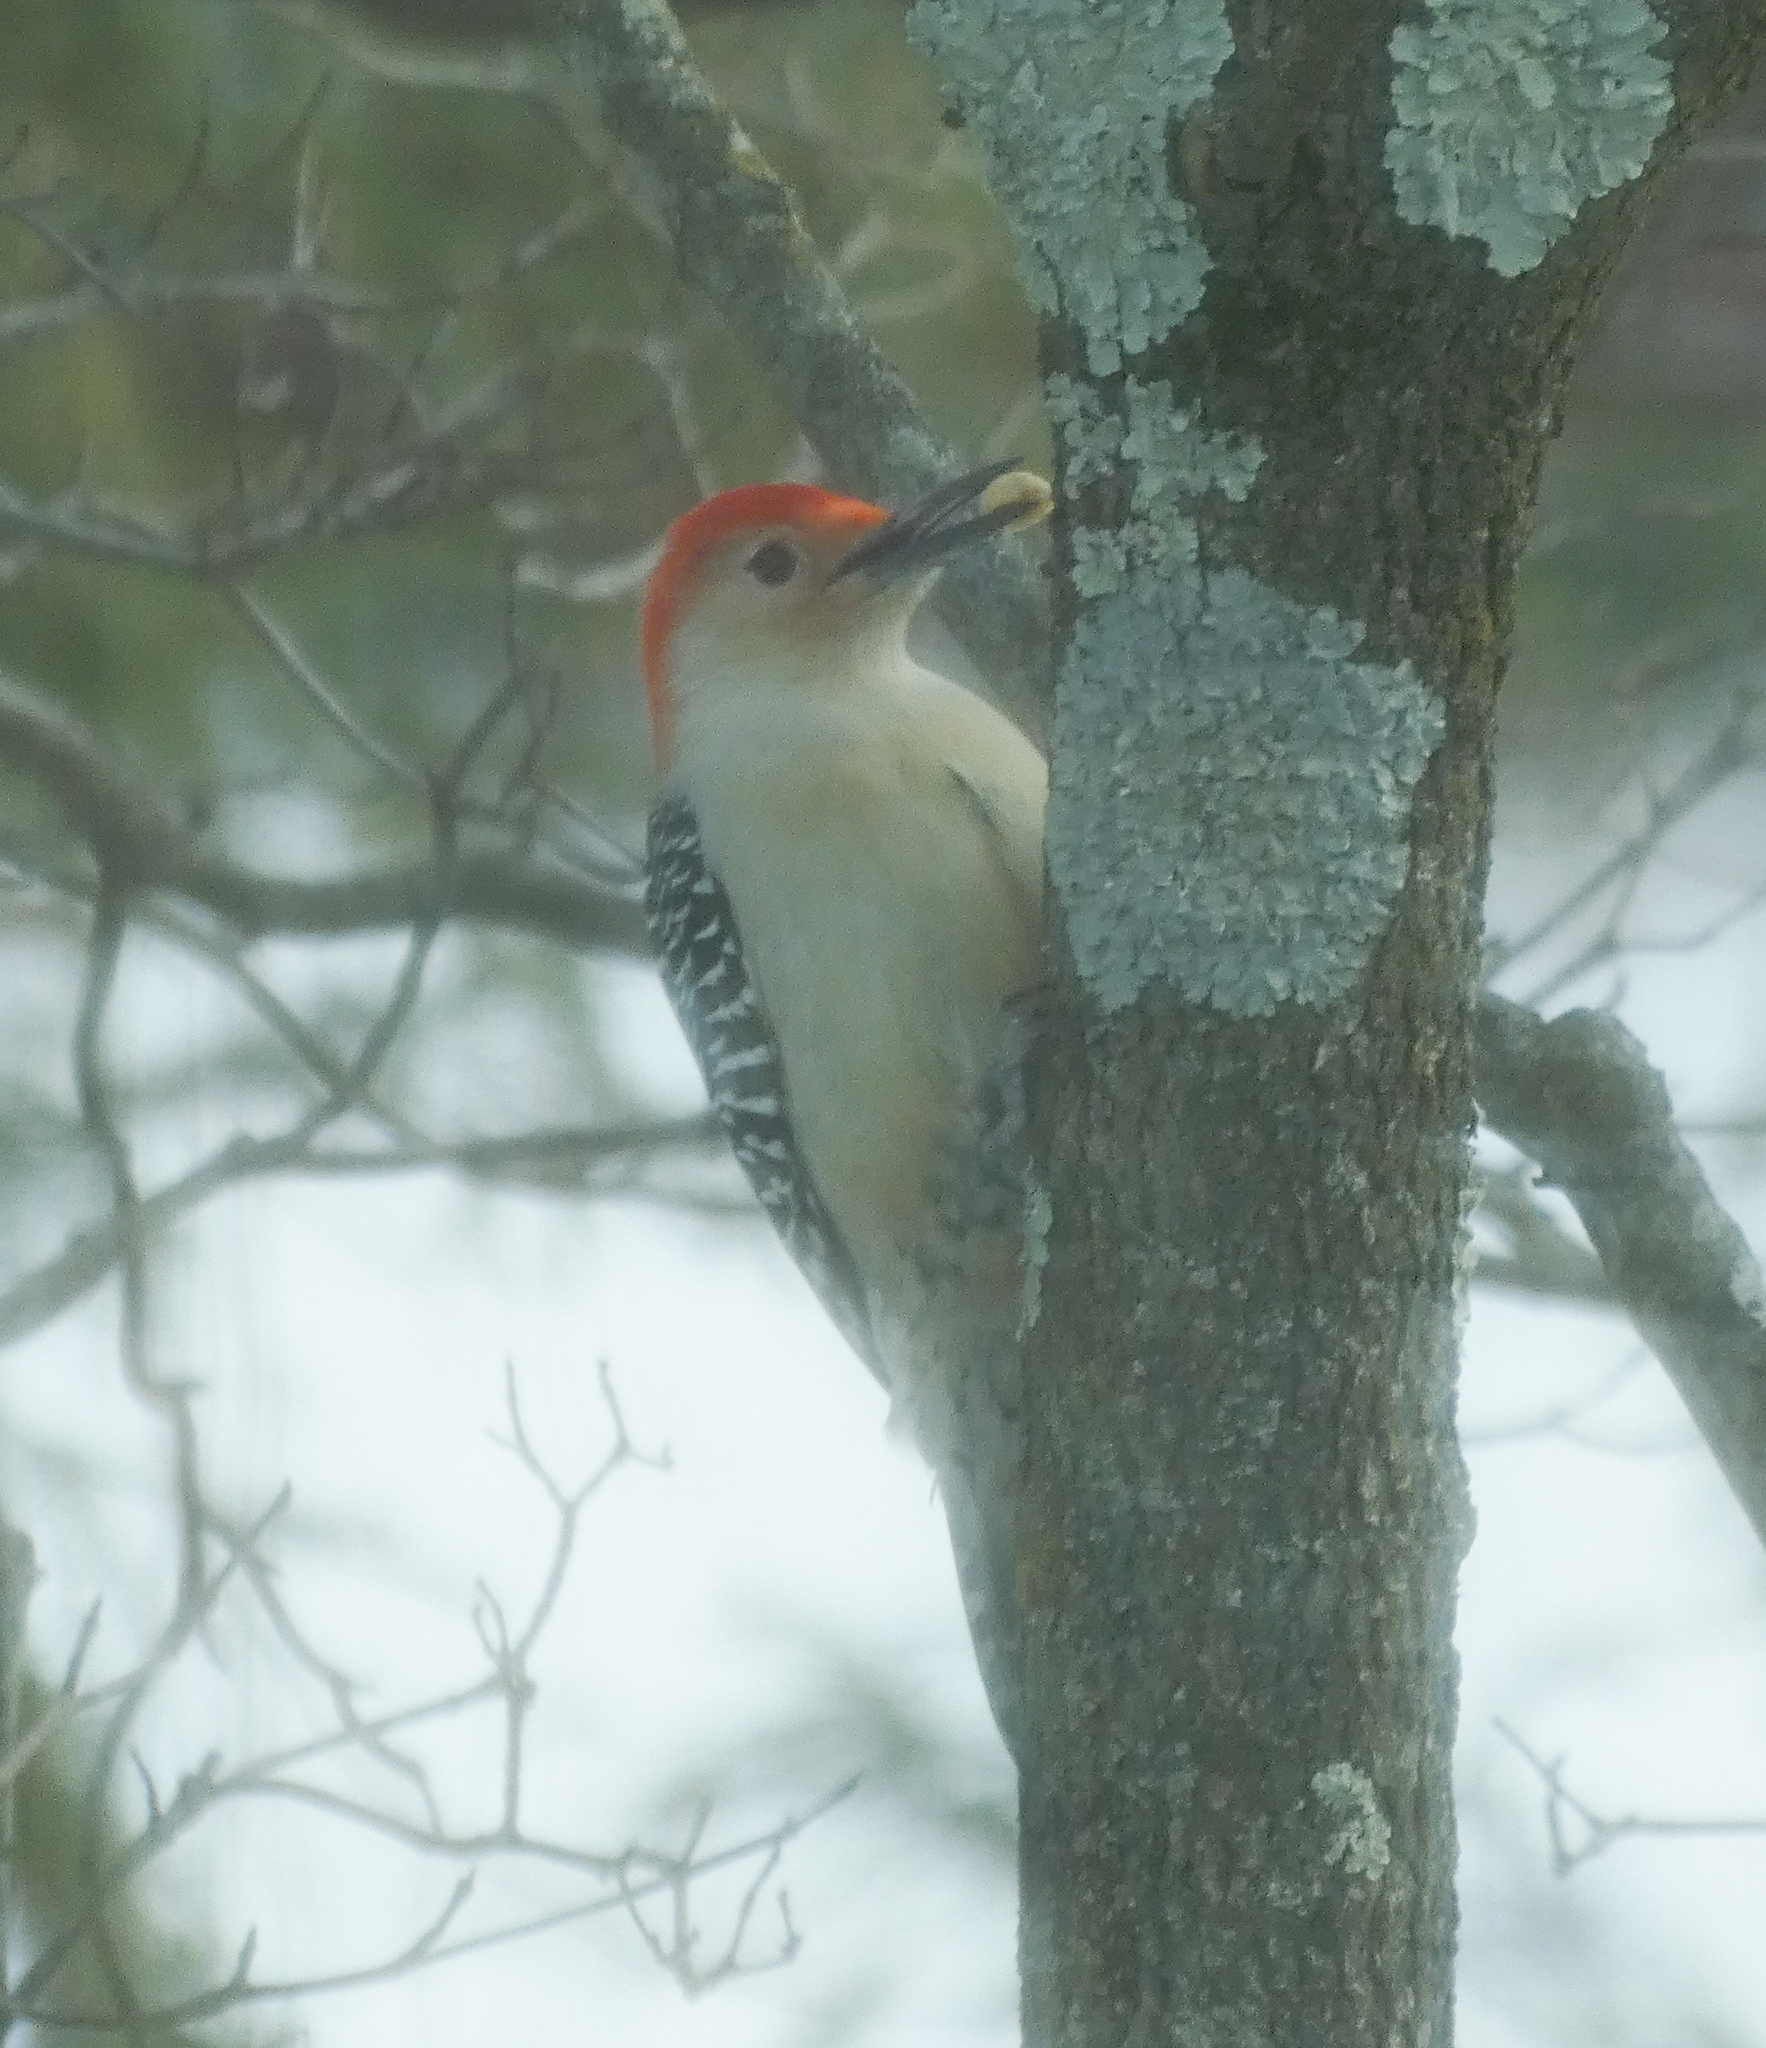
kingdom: Animalia
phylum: Chordata
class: Aves
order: Piciformes
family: Picidae
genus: Melanerpes
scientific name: Melanerpes carolinus
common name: Red-bellied woodpecker
